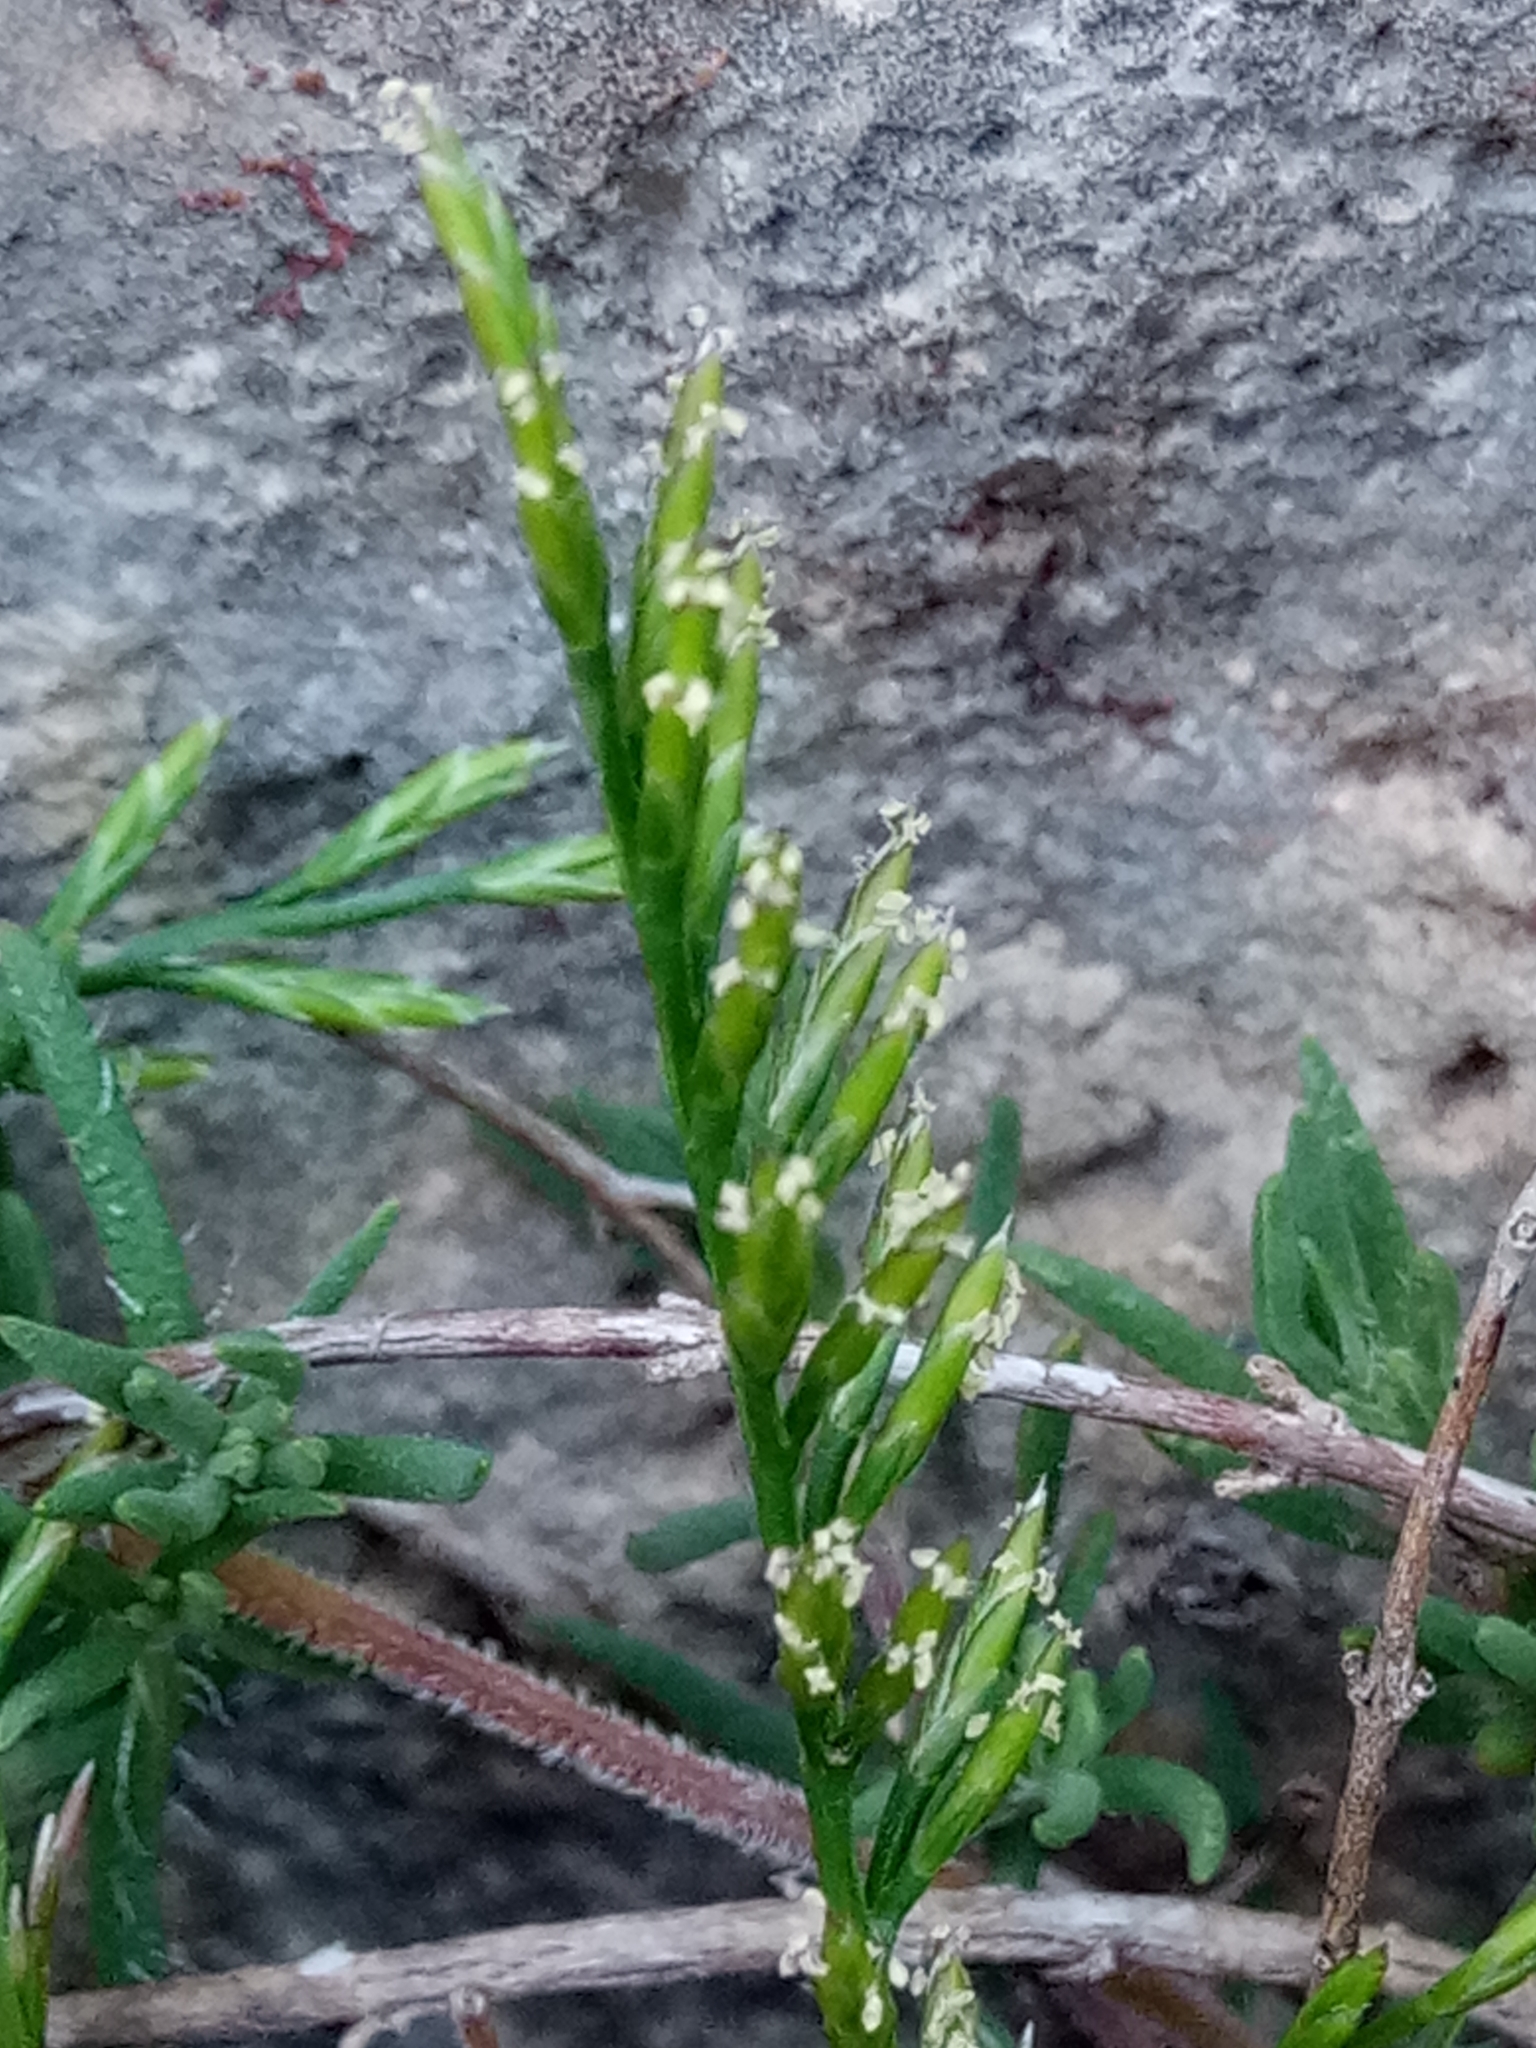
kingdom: Plantae
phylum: Tracheophyta
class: Liliopsida
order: Poales
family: Poaceae
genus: Catapodium
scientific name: Catapodium rigidum
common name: Fern-grass
